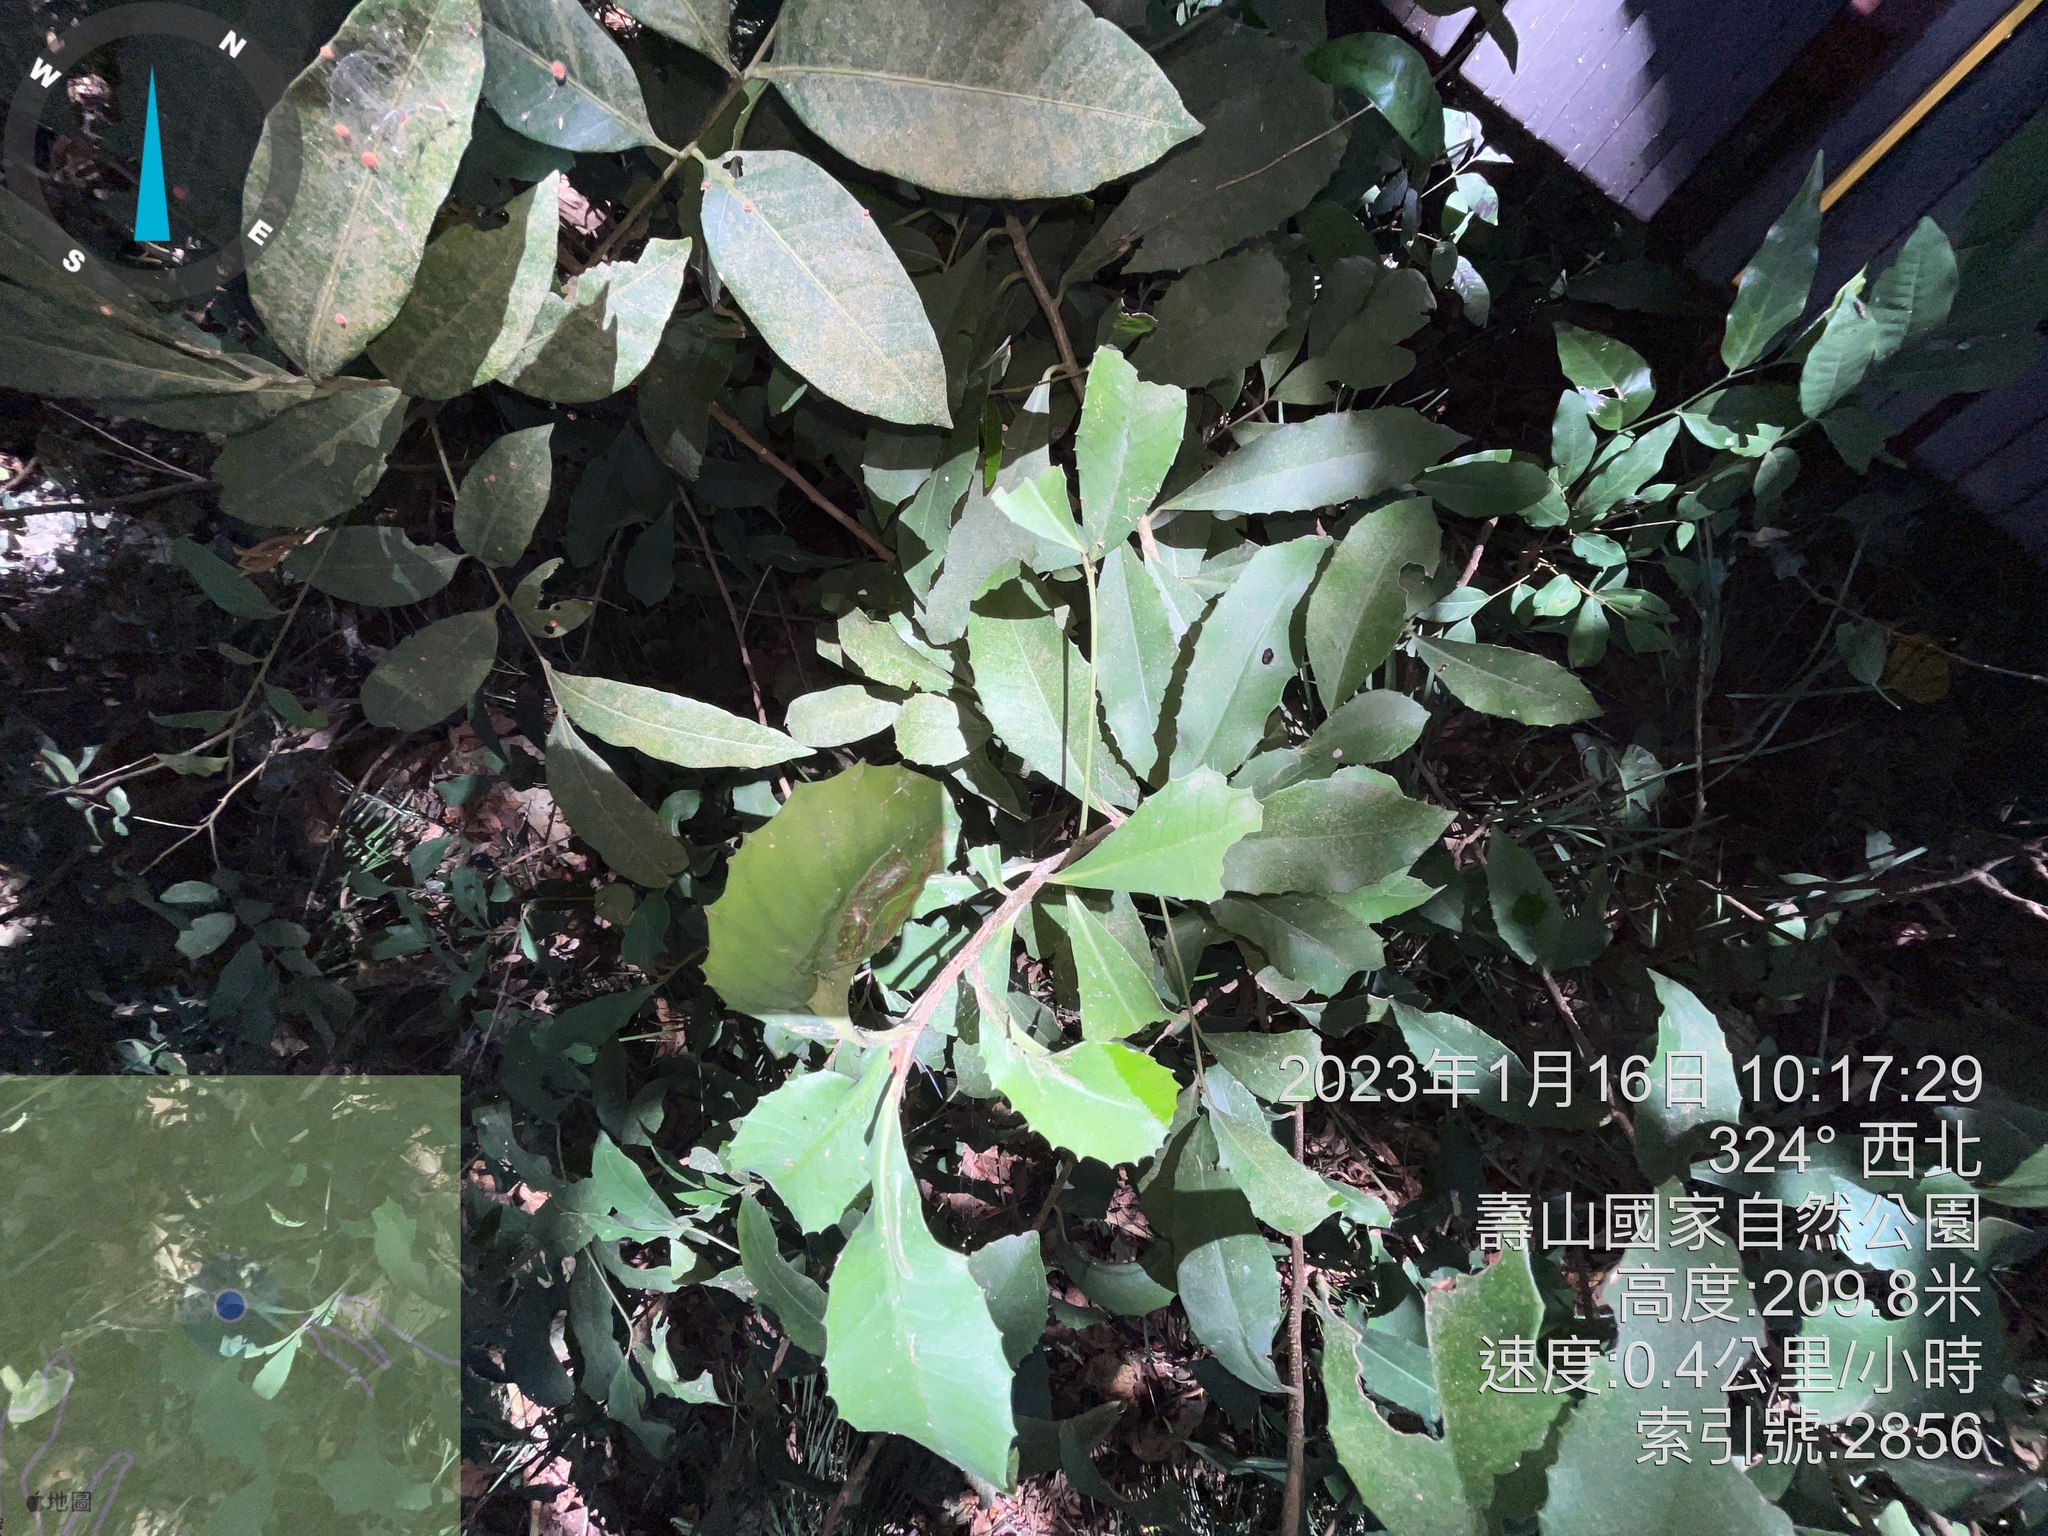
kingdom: Plantae
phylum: Tracheophyta
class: Magnoliopsida
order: Ericales
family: Primulaceae
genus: Ardisia
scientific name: Ardisia cornudentata
